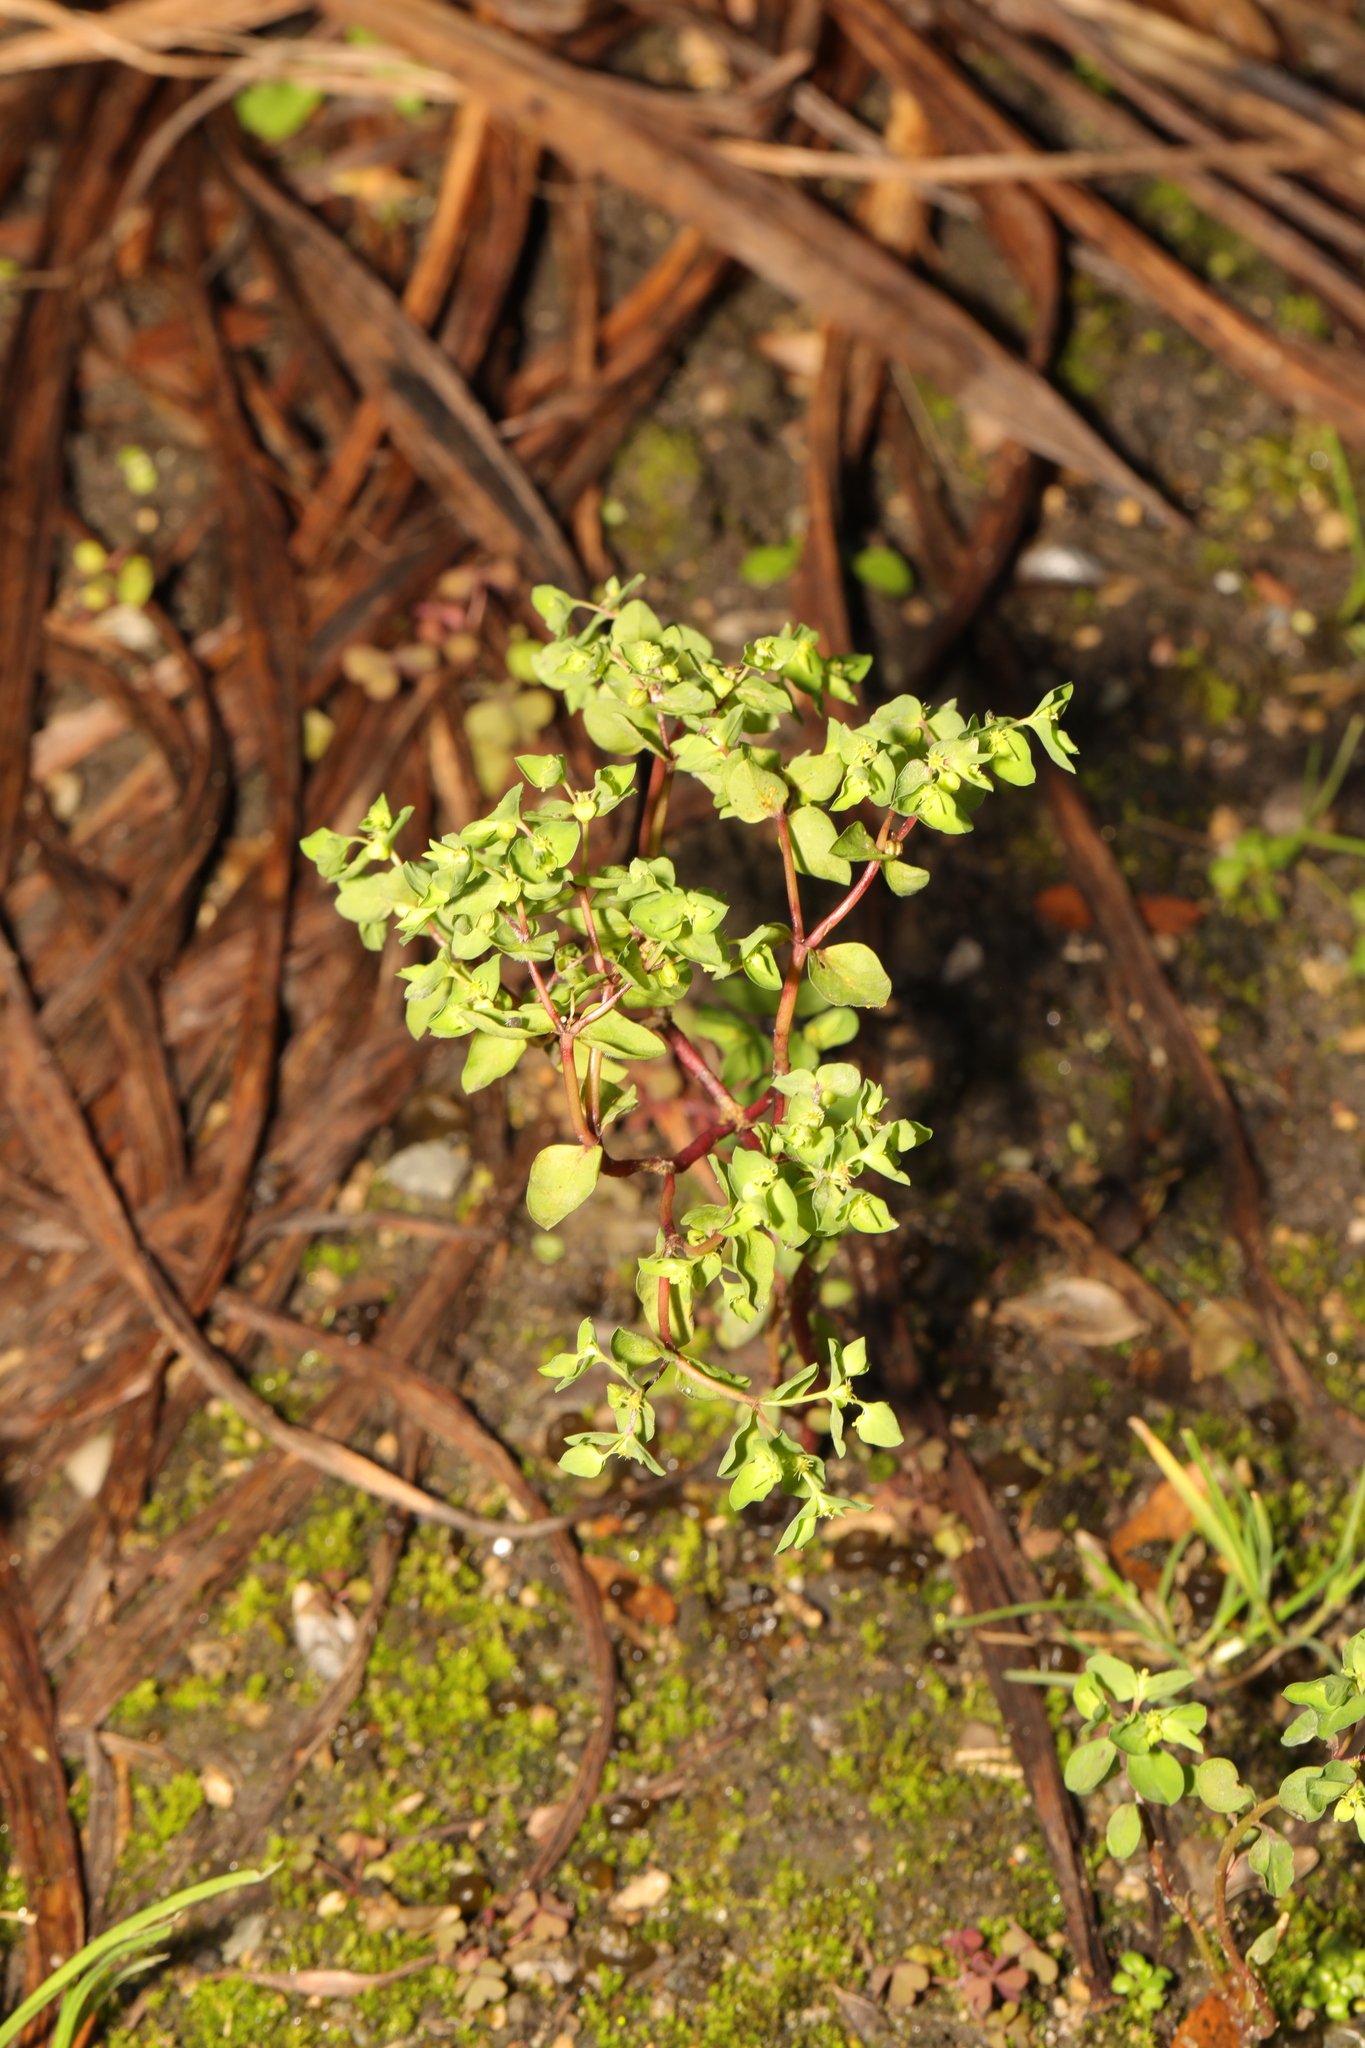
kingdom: Plantae
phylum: Tracheophyta
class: Magnoliopsida
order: Malpighiales
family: Euphorbiaceae
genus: Euphorbia
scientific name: Euphorbia peplus
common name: Petty spurge
